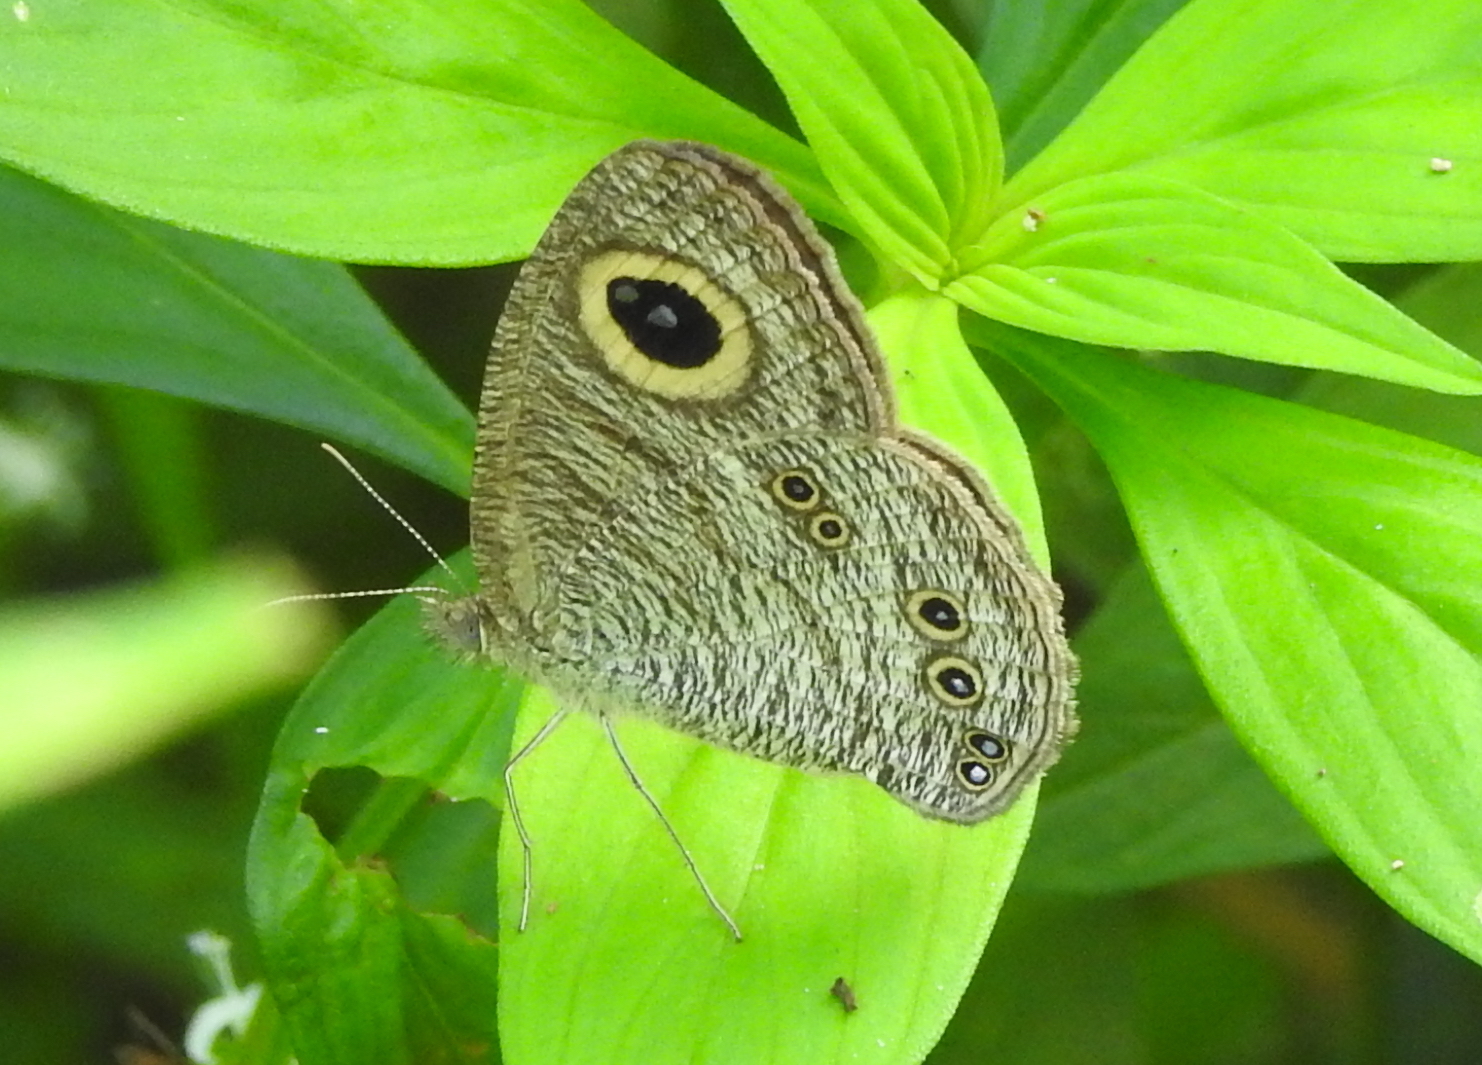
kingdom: Animalia
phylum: Arthropoda
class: Insecta
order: Lepidoptera
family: Nymphalidae
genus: Ypthima
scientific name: Ypthima baldus
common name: Common five-ring
